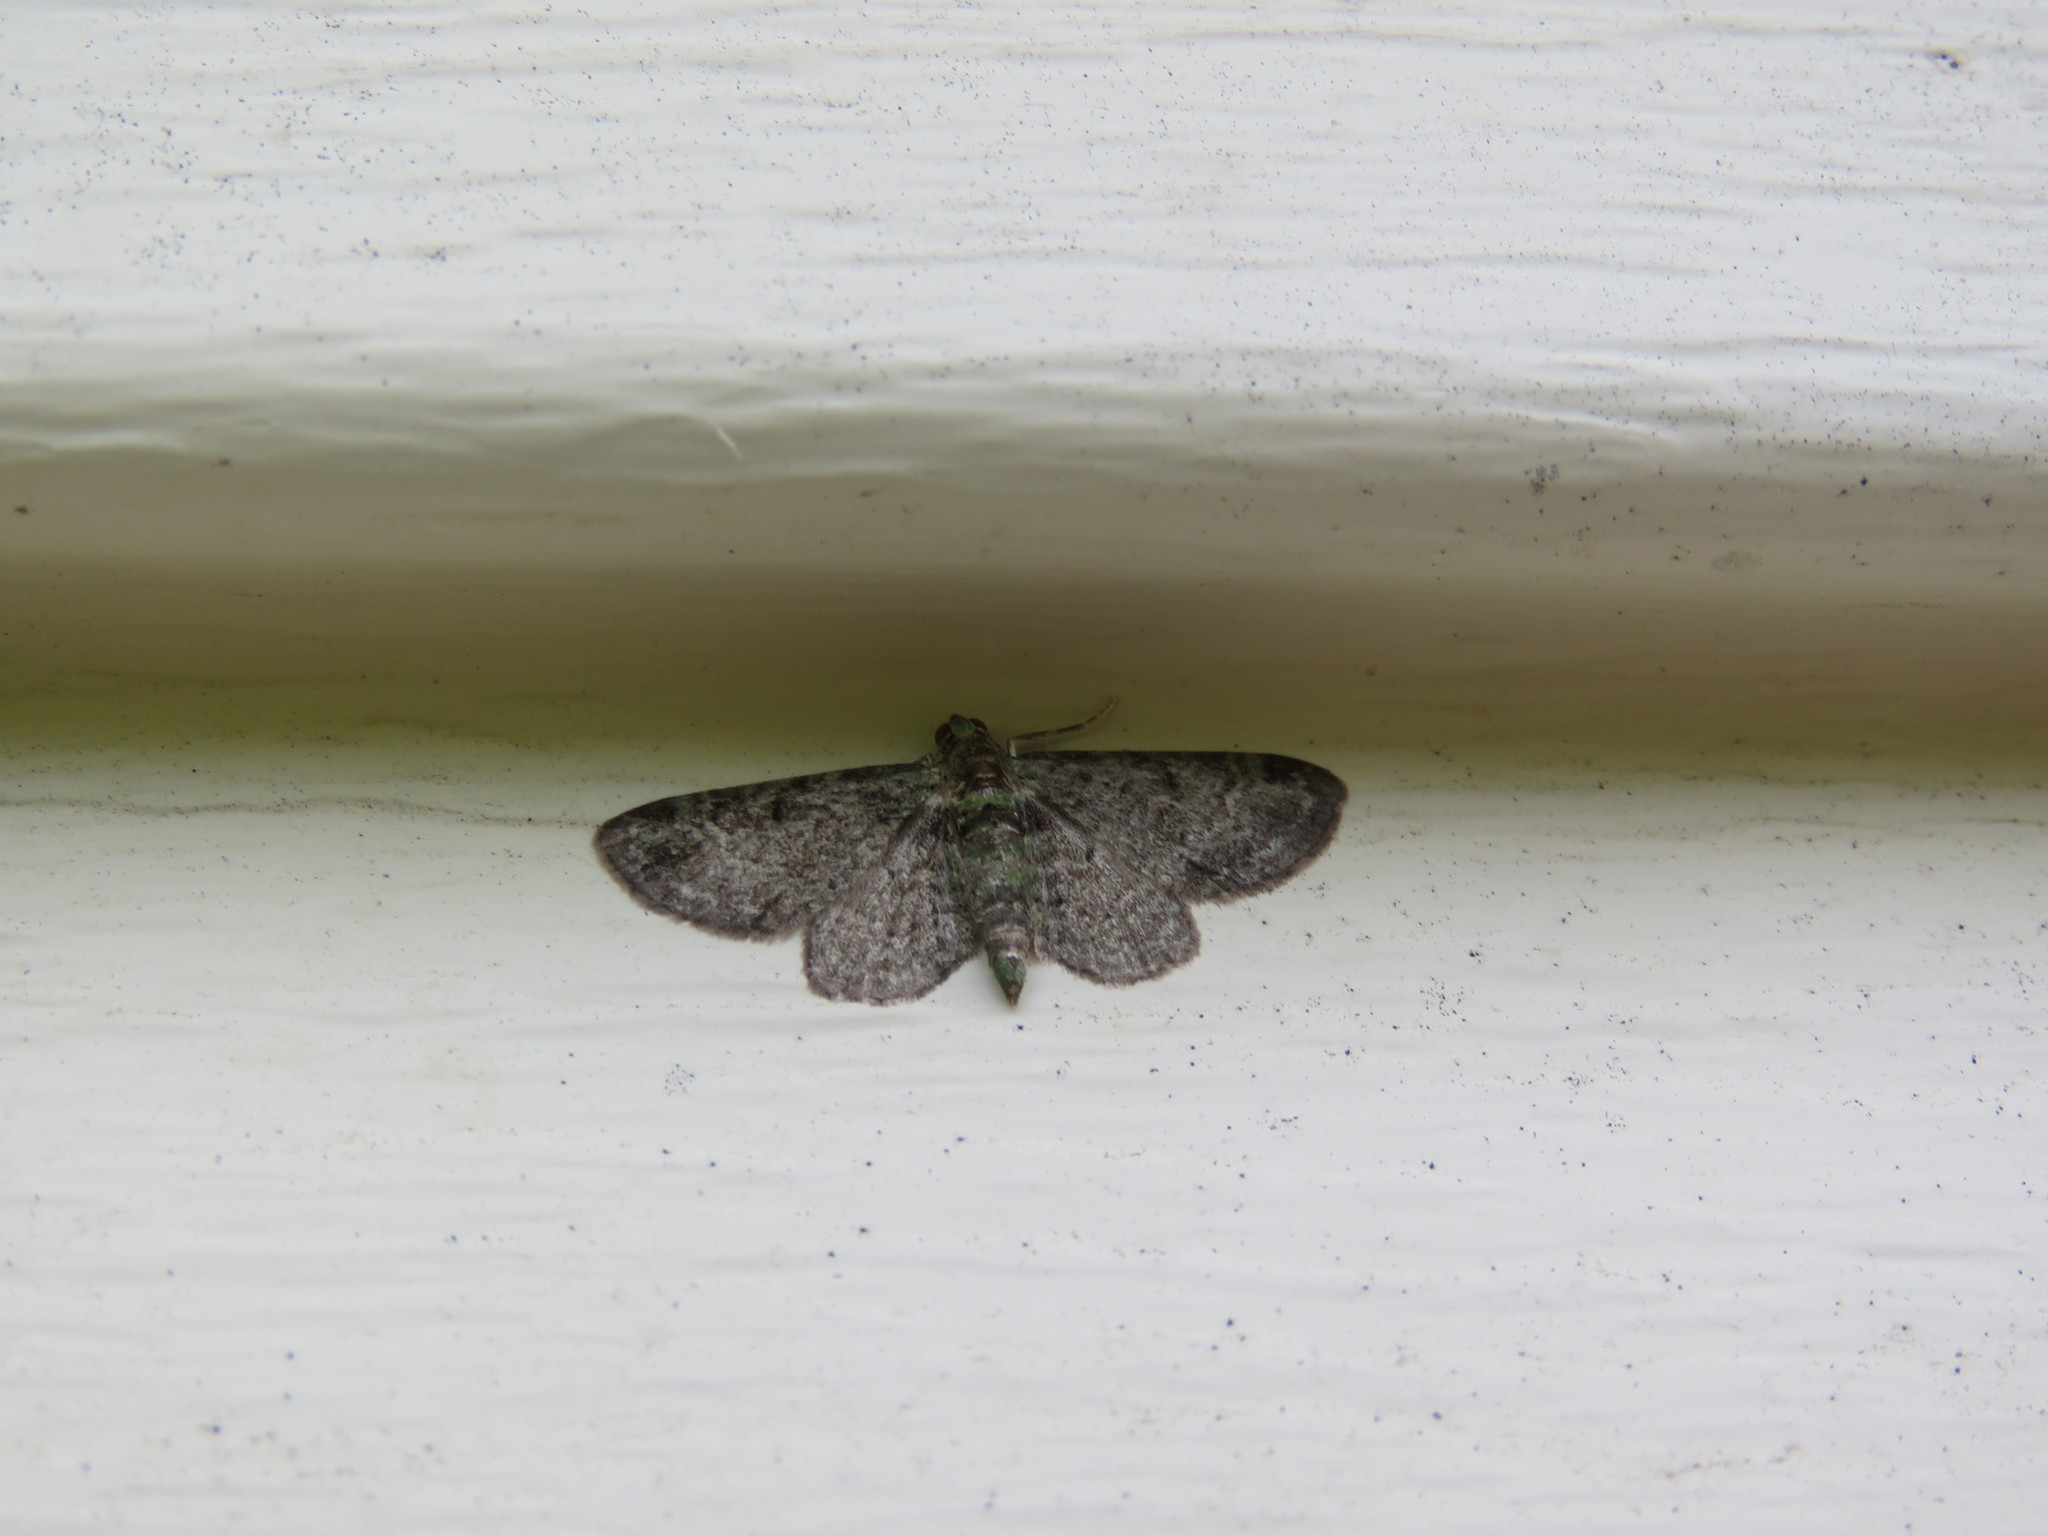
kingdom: Animalia
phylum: Arthropoda
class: Insecta
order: Lepidoptera
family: Geometridae
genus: Pasiphila
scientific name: Pasiphila rectangulata
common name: Green pug
